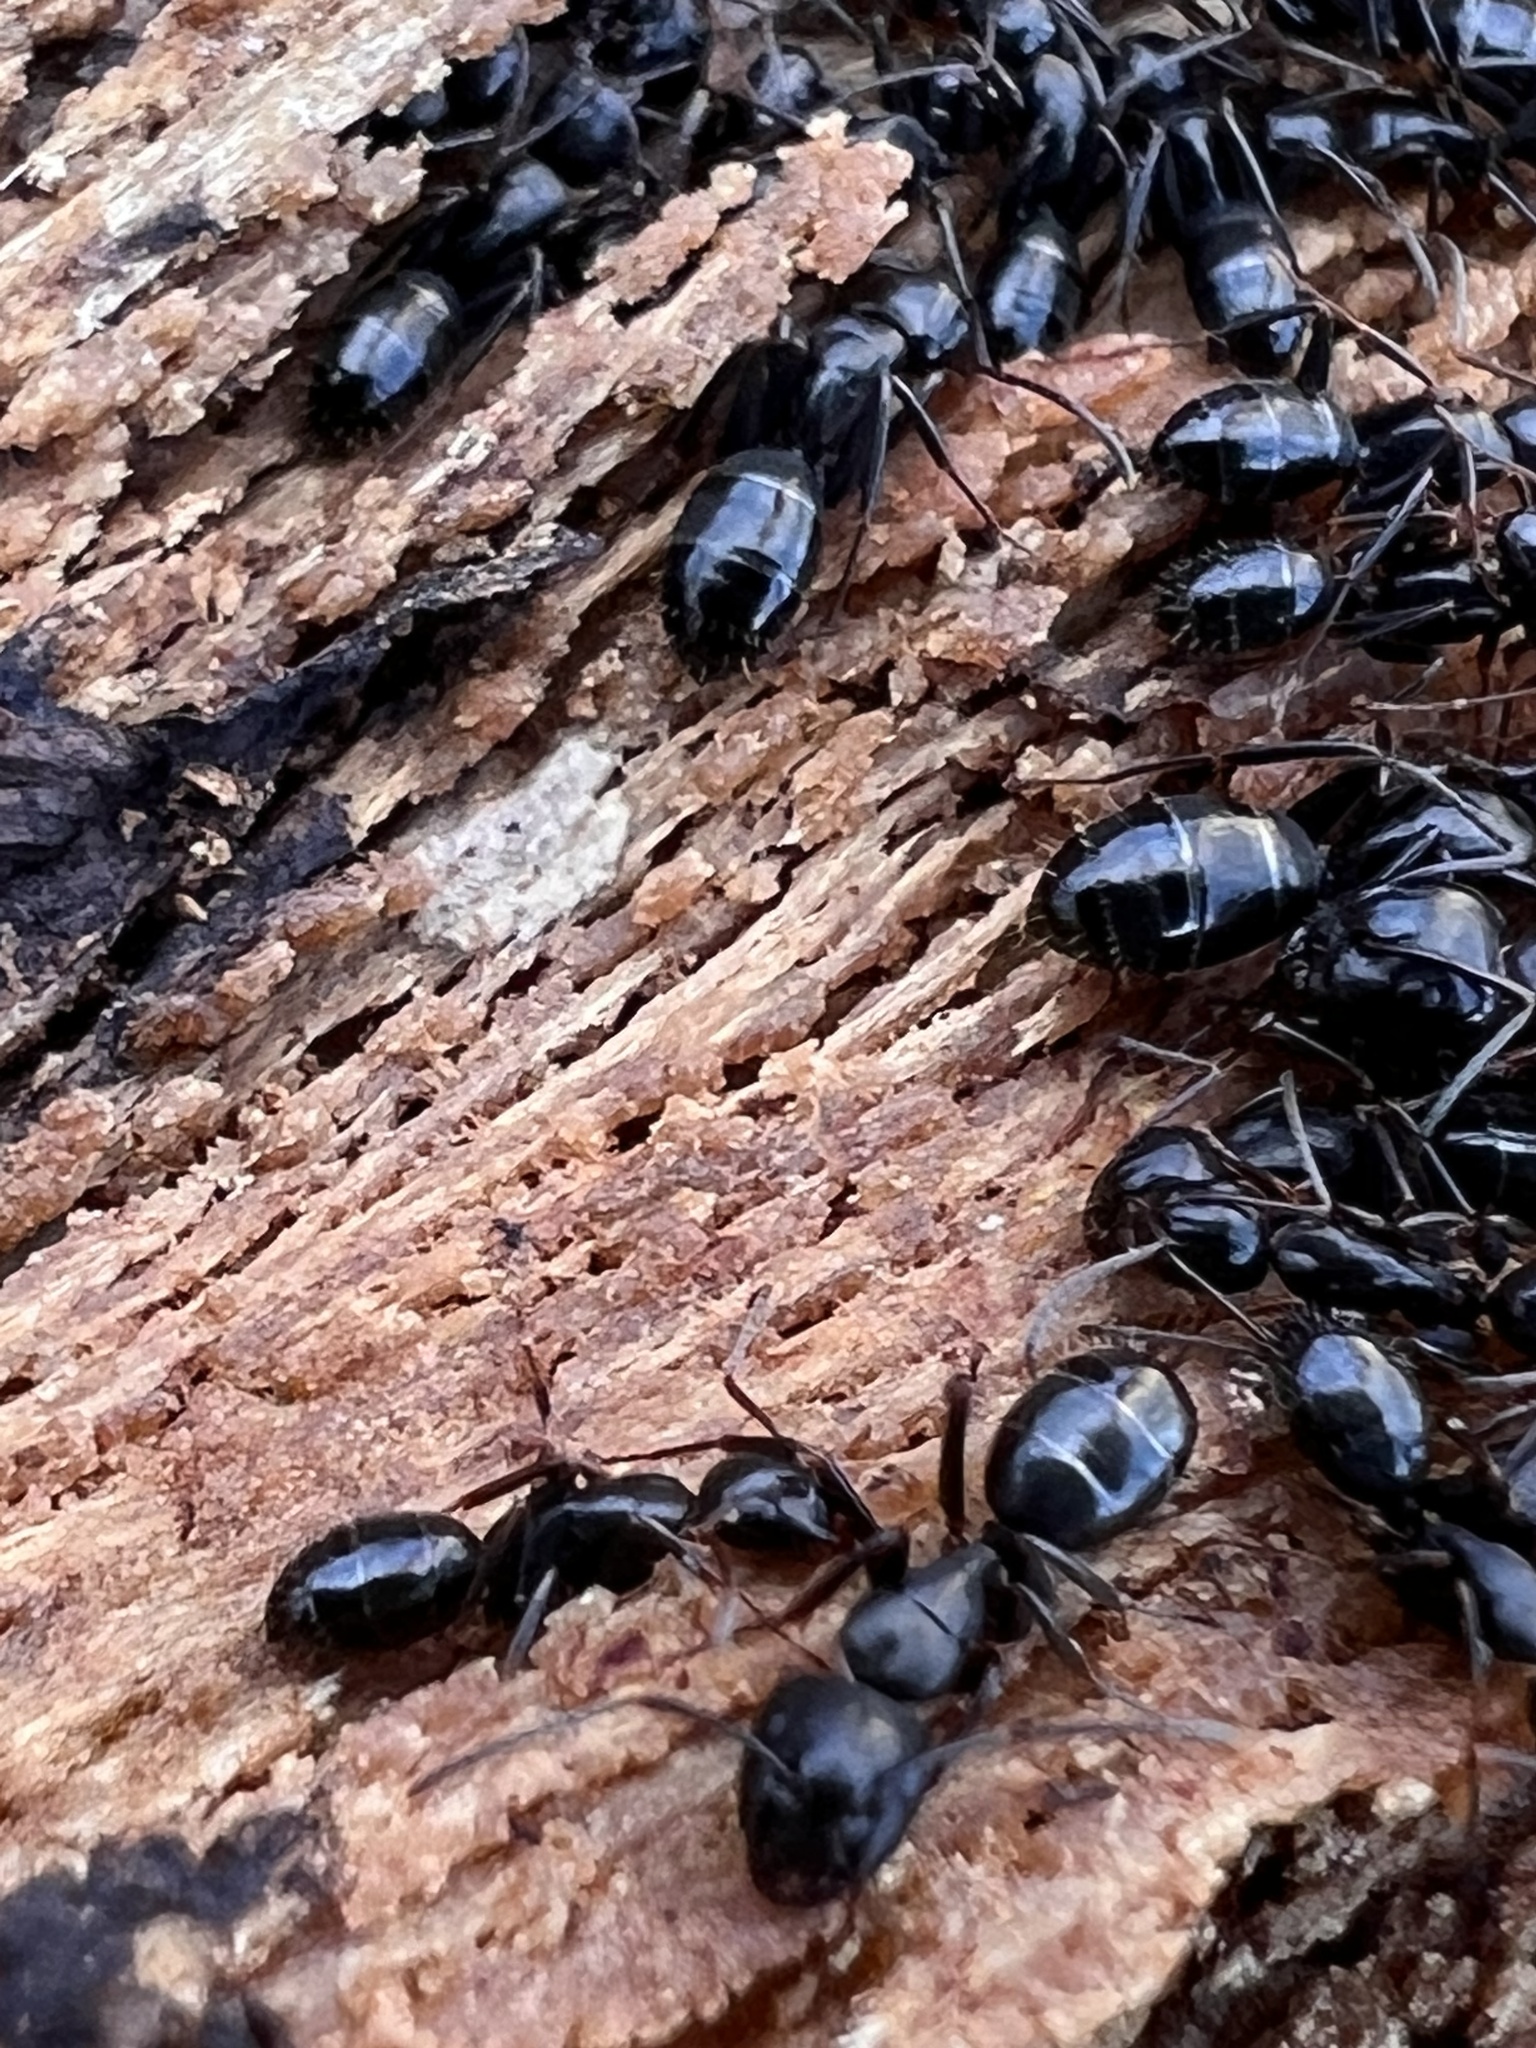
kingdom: Animalia
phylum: Arthropoda
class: Insecta
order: Hymenoptera
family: Formicidae
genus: Camponotus
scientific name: Camponotus nearcticus
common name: Smaller carpenter ant
